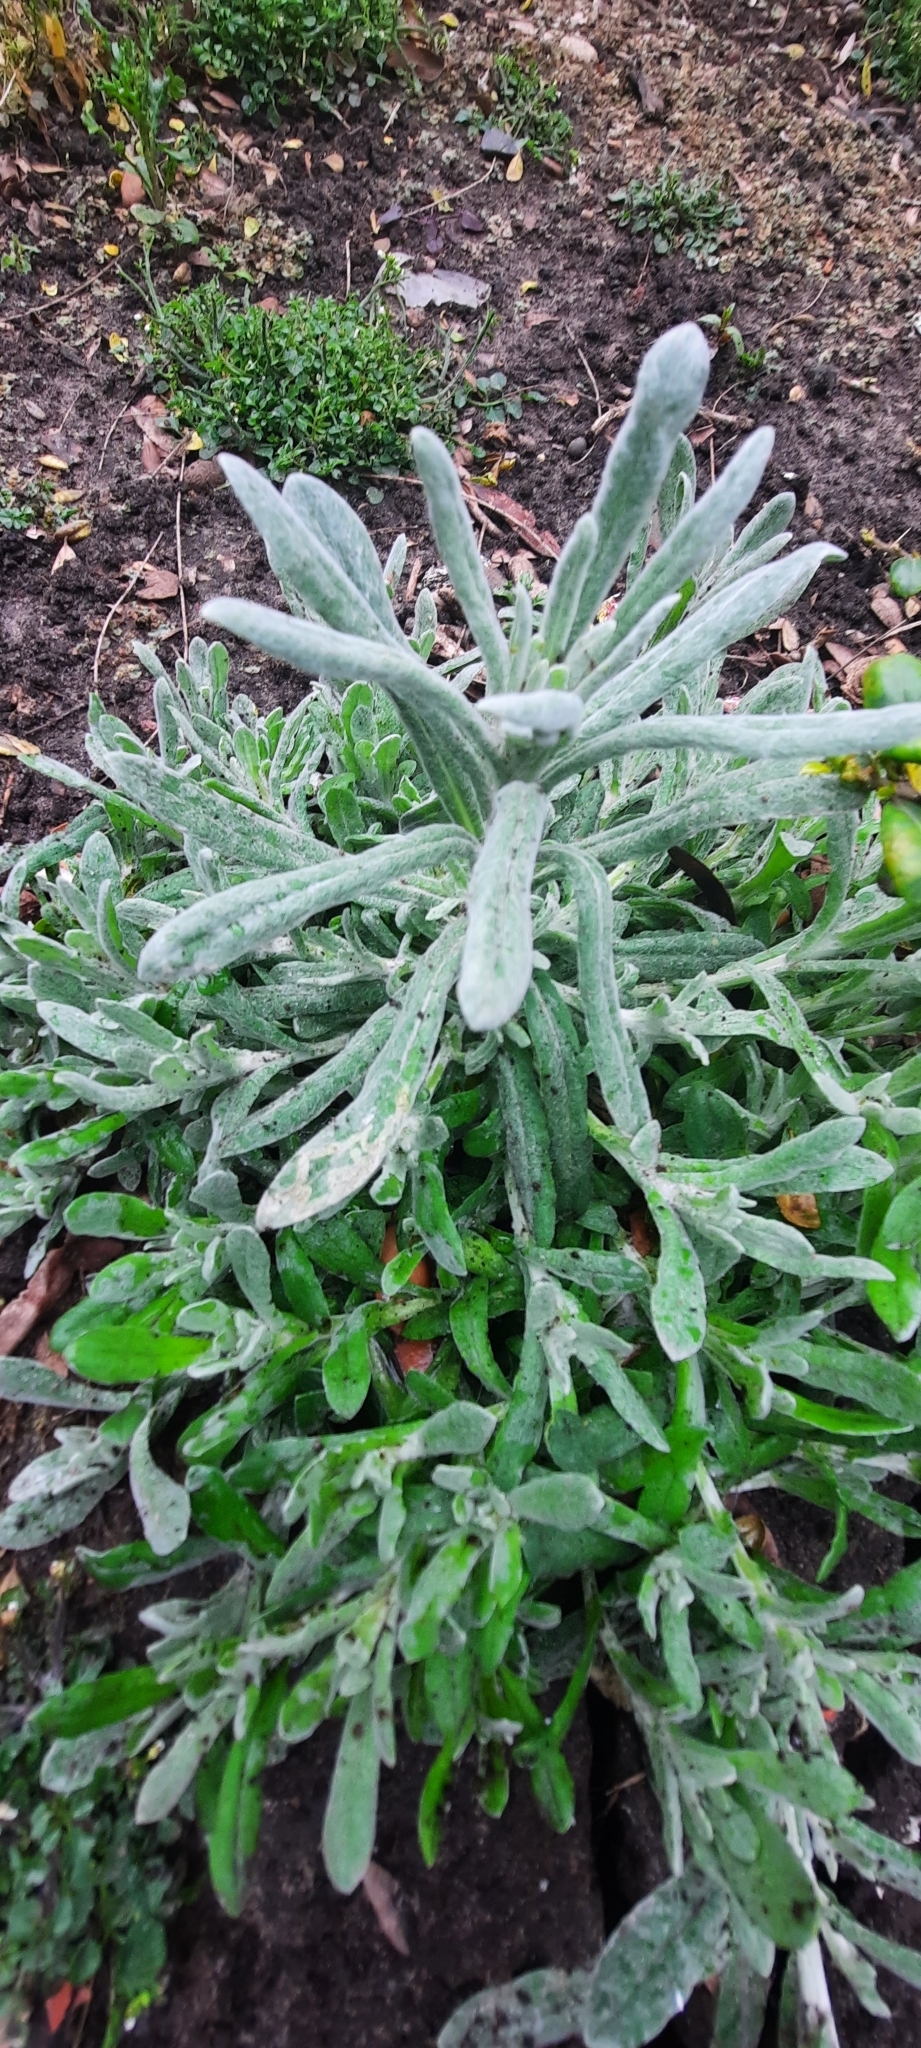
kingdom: Plantae
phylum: Tracheophyta
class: Magnoliopsida
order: Asterales
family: Asteraceae
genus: Helichrysum
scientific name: Helichrysum luteoalbum
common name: Daisy
